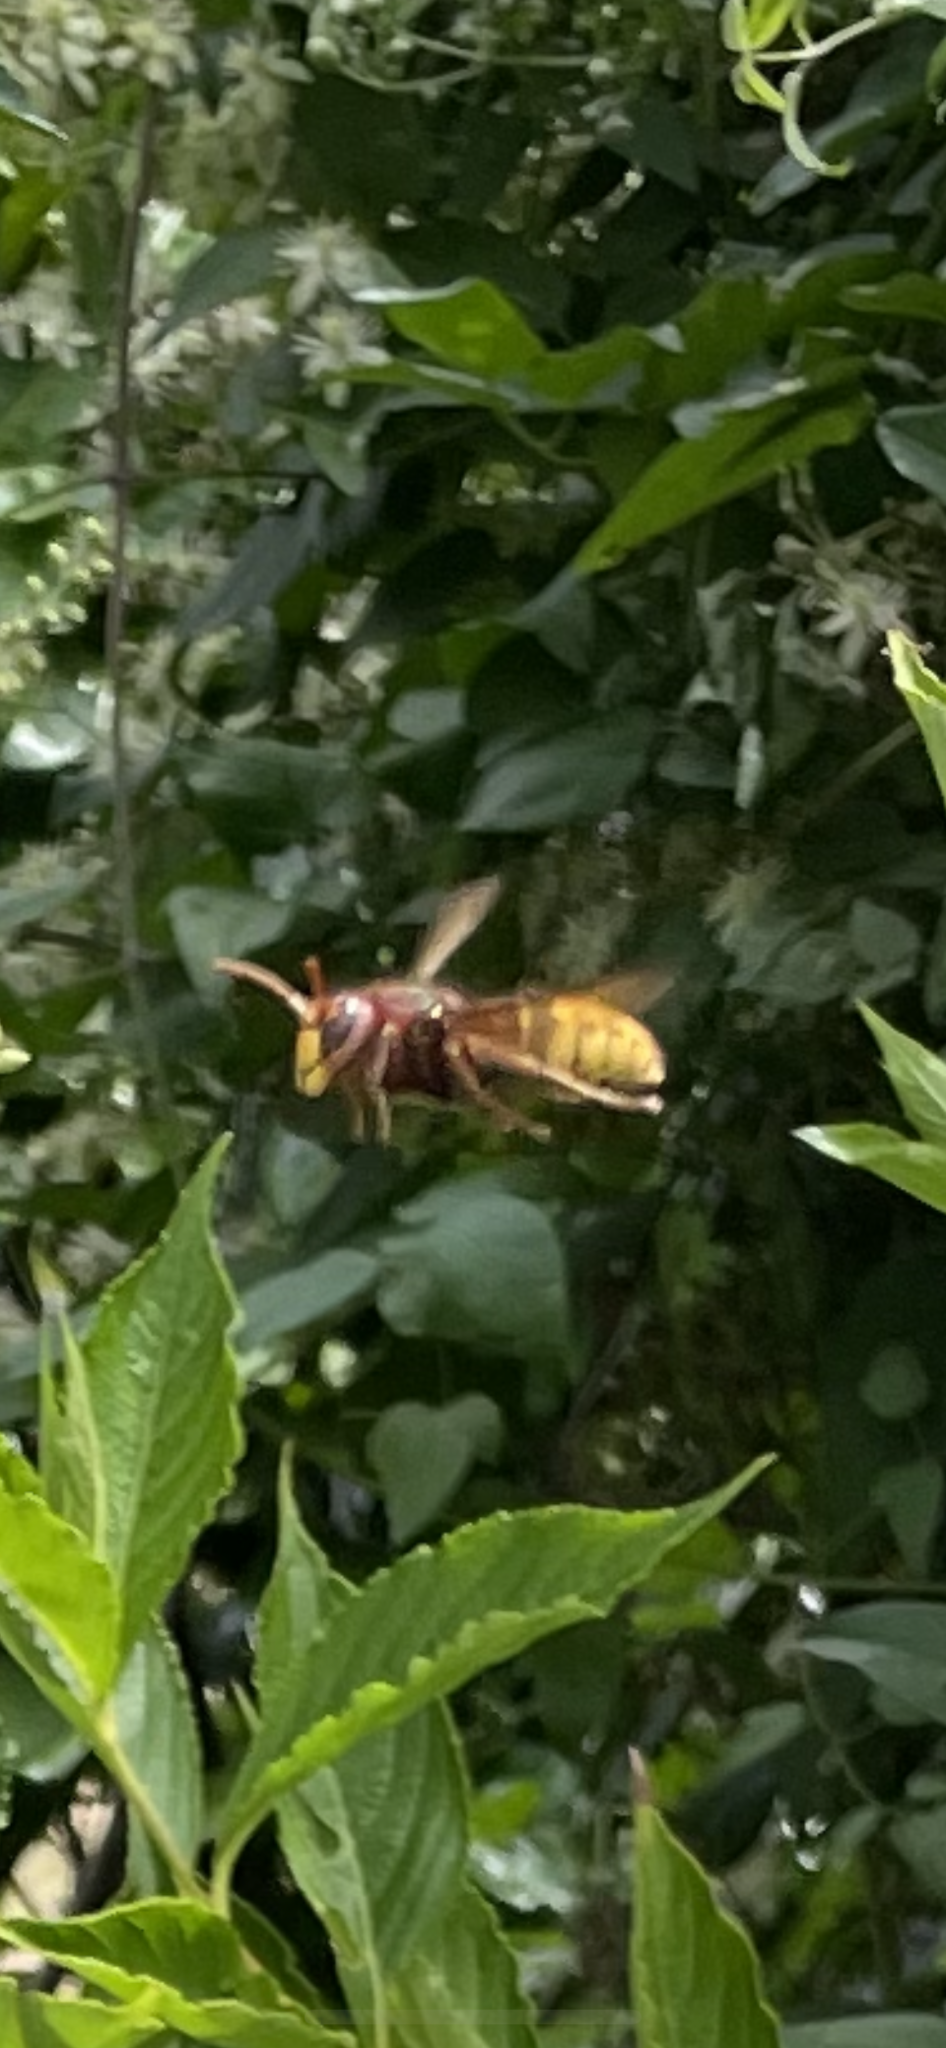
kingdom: Animalia
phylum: Arthropoda
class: Insecta
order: Hymenoptera
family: Vespidae
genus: Vespa
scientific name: Vespa crabro
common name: Hornet
